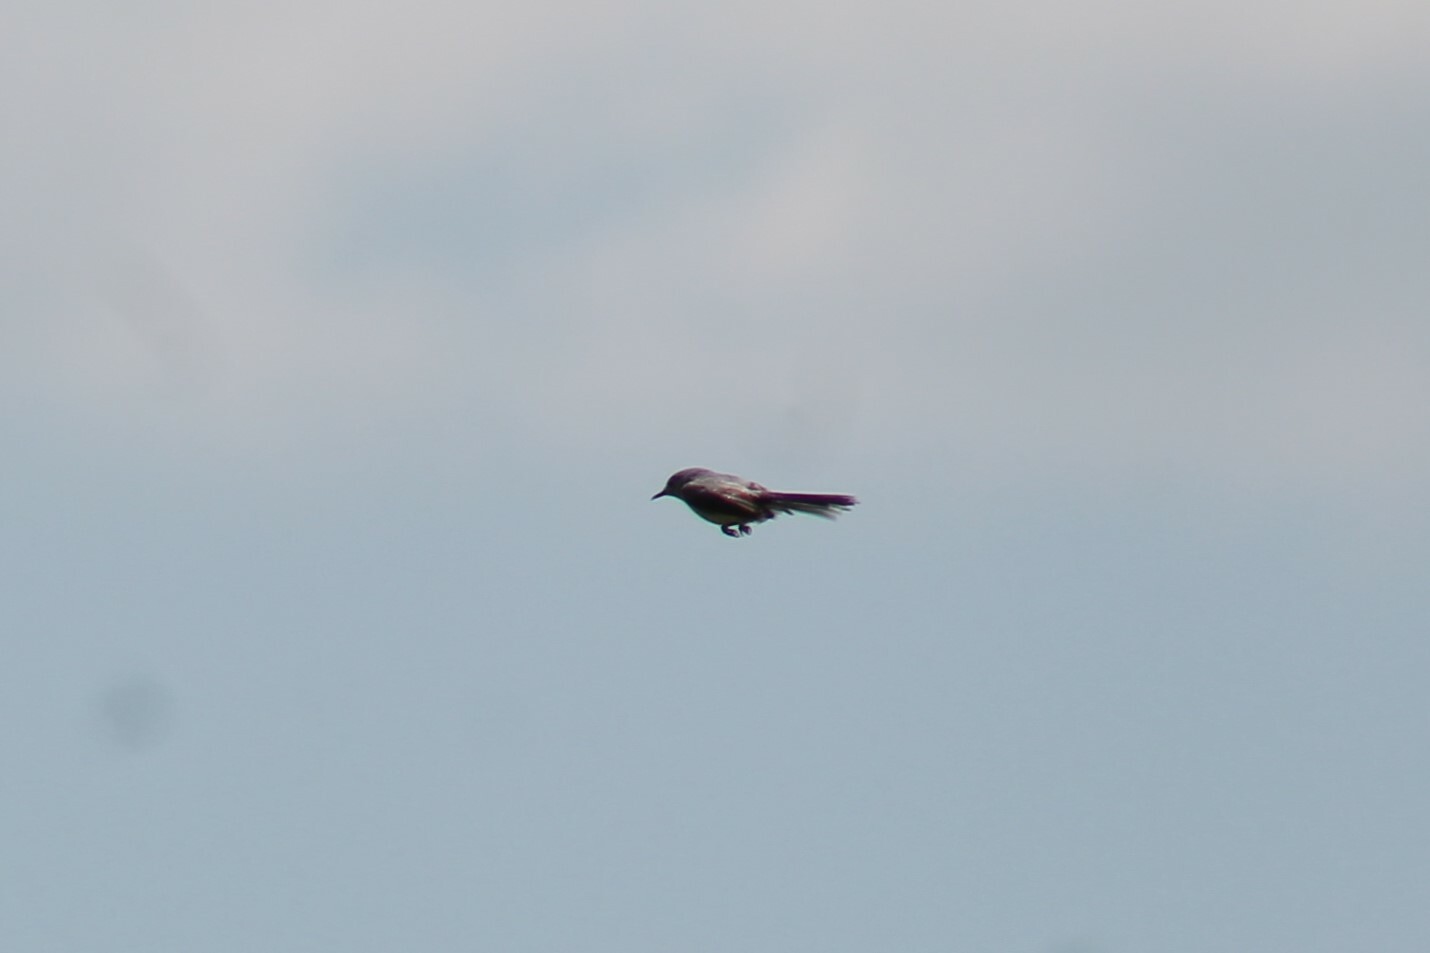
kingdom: Animalia
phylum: Chordata
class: Aves
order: Passeriformes
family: Polioptilidae
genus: Polioptila
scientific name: Polioptila caerulea
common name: Blue-gray gnatcatcher
